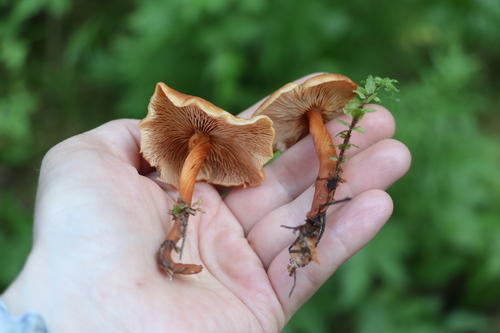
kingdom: Fungi
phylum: Basidiomycota
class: Agaricomycetes
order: Agaricales
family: Omphalotaceae
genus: Gymnopus
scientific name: Gymnopus dryophilus
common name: Penny top
